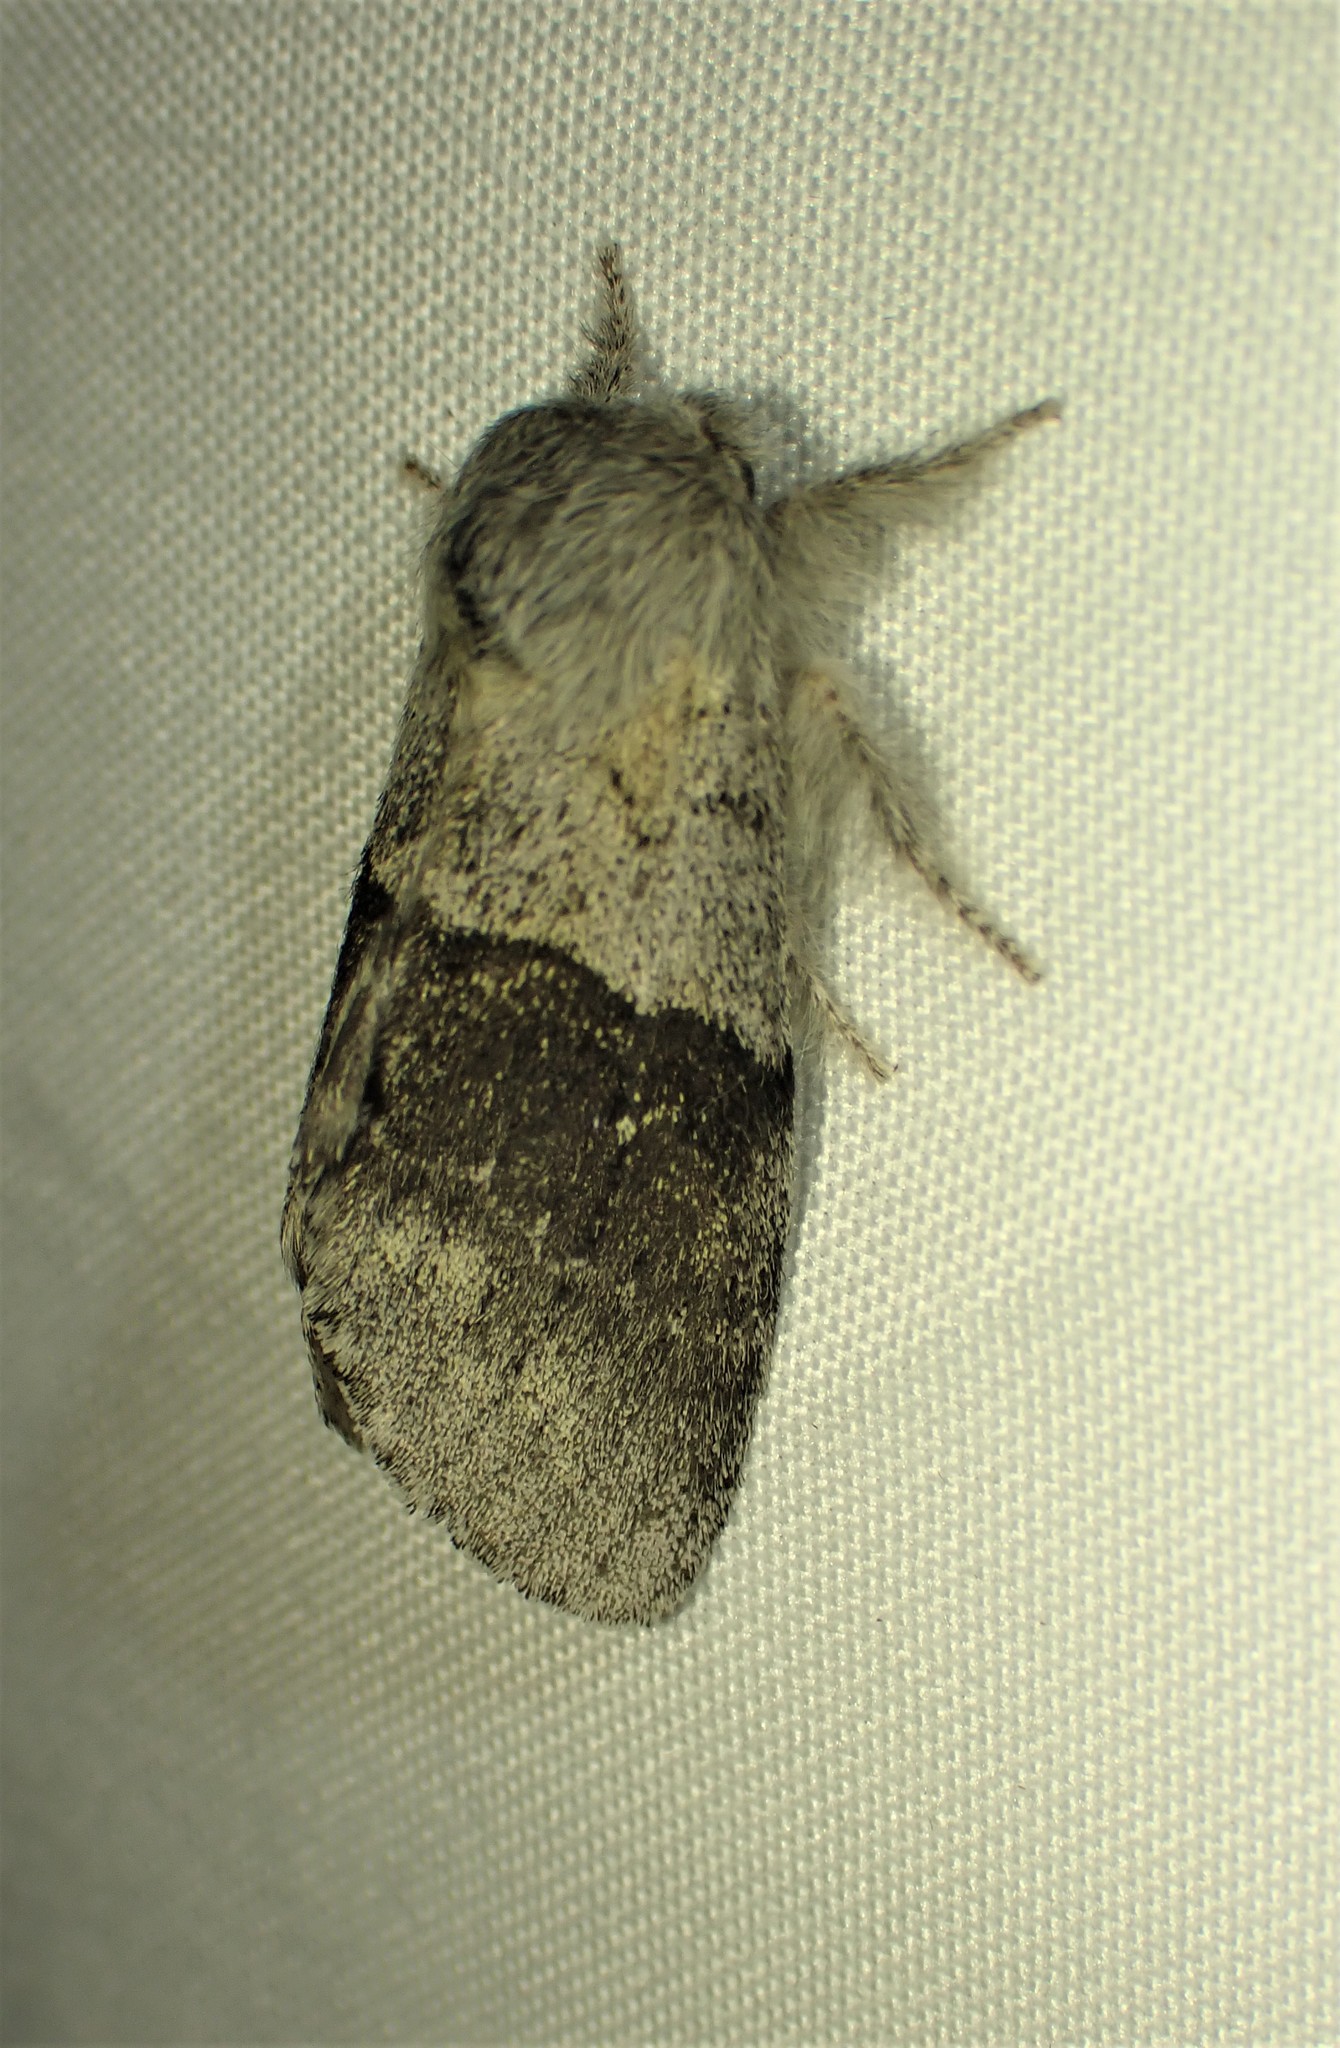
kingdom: Animalia
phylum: Arthropoda
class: Insecta
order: Lepidoptera
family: Notodontidae
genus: Gluphisia
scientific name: Gluphisia lintneri
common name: Lintner's gluphisia moth
